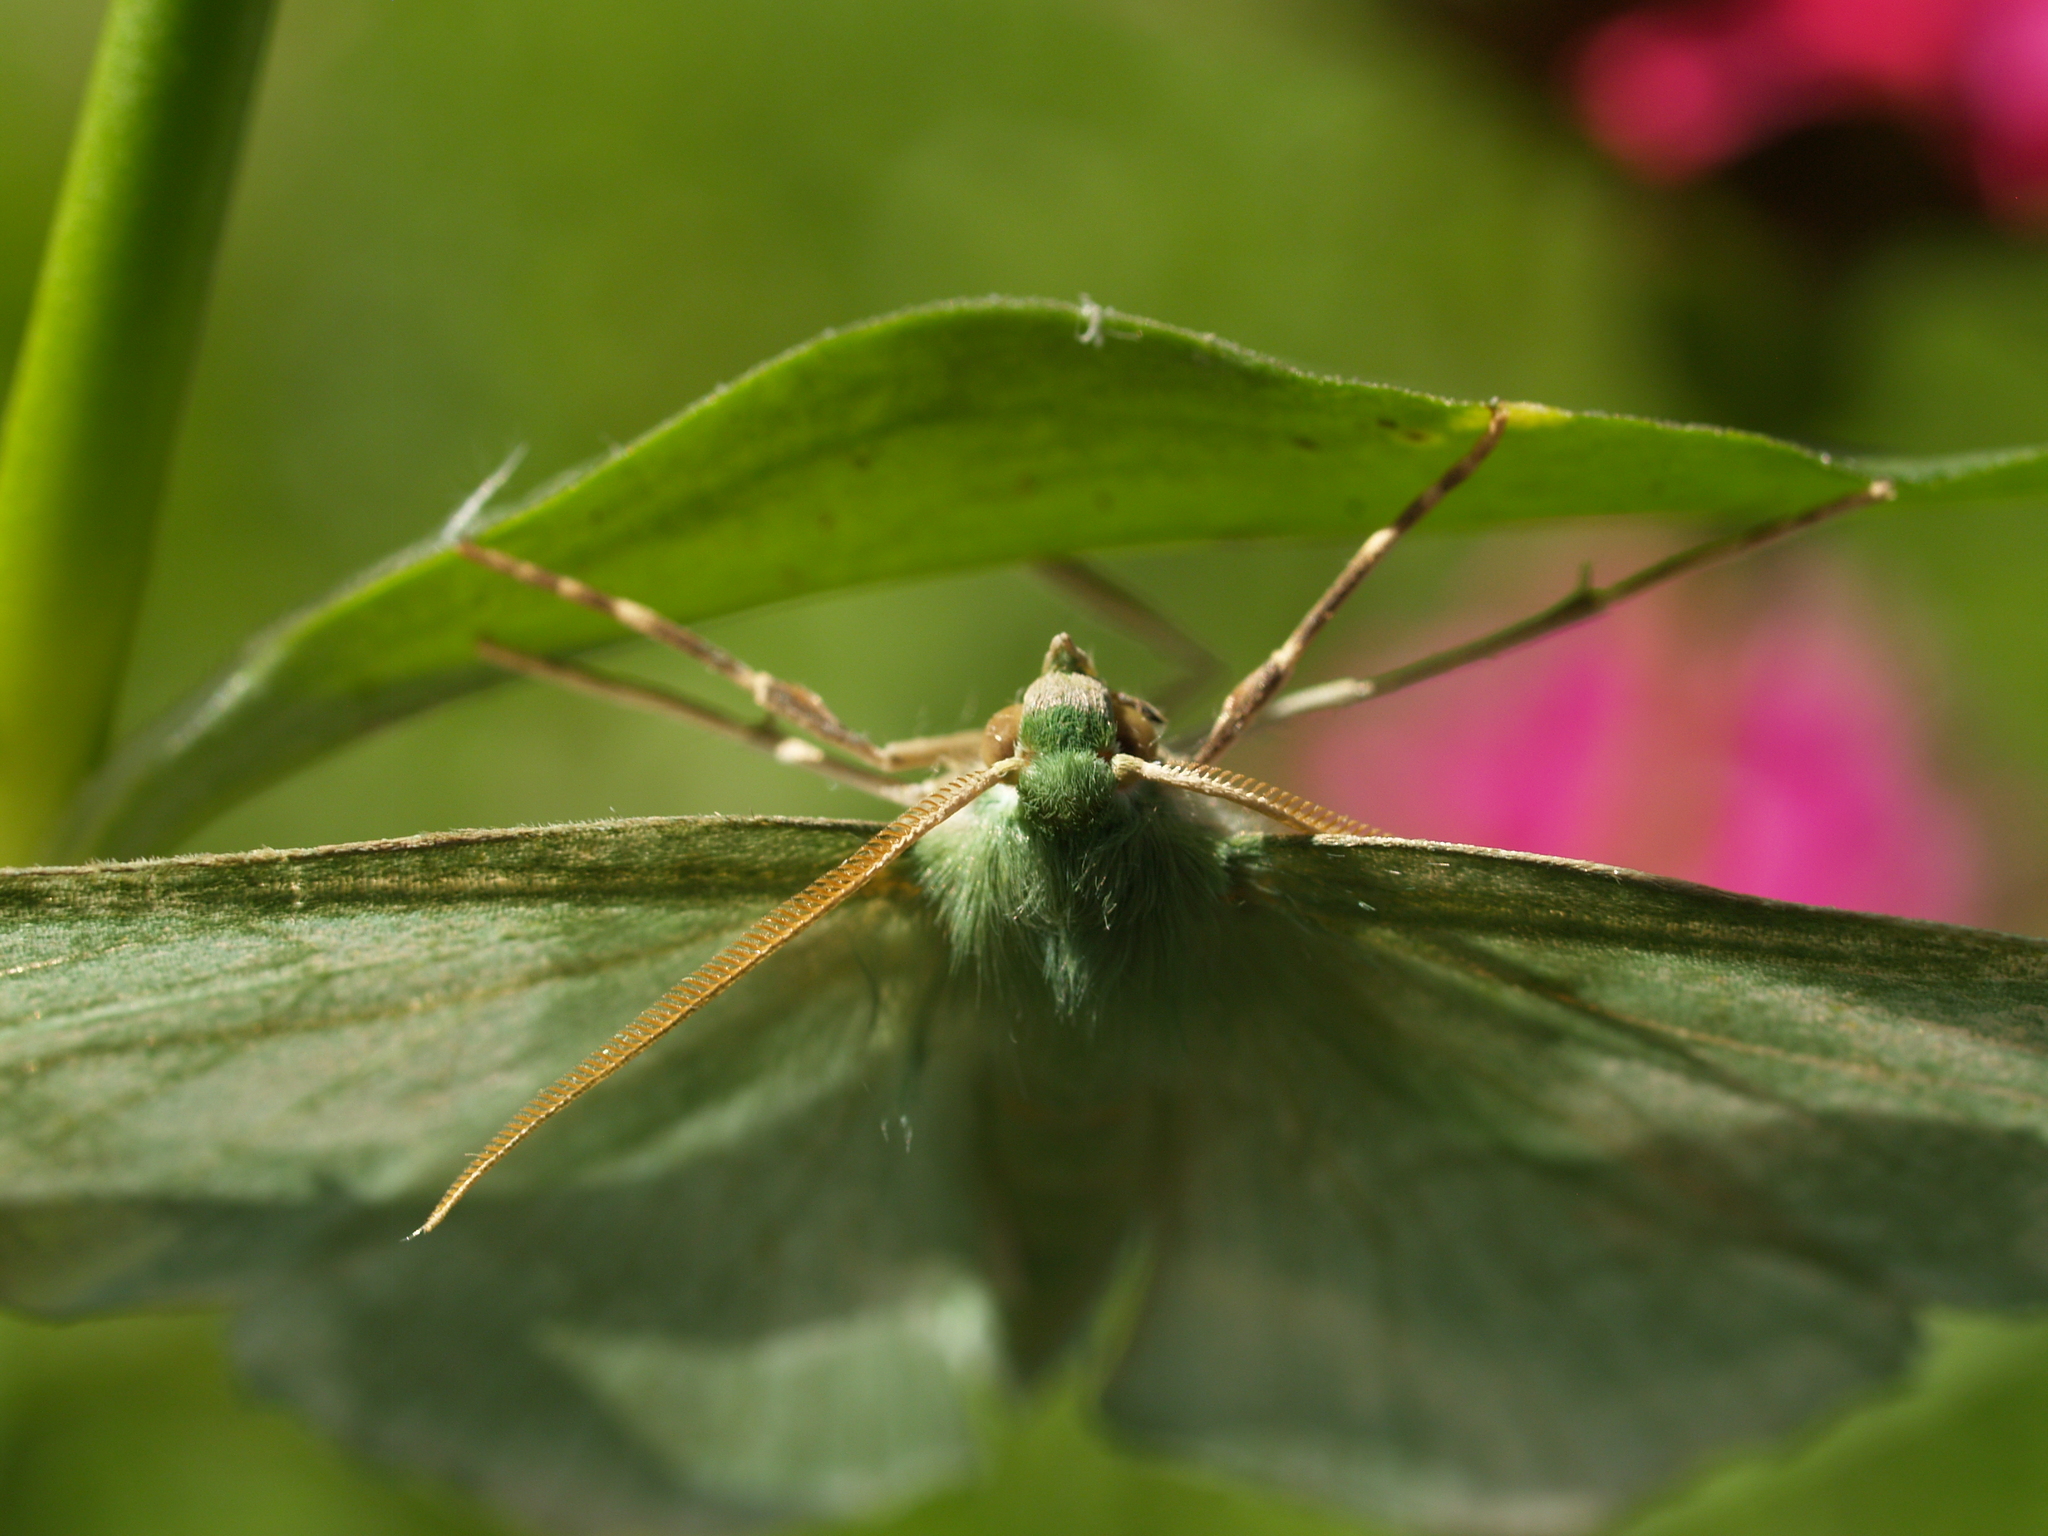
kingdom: Animalia
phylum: Arthropoda
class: Insecta
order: Lepidoptera
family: Geometridae
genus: Geometra
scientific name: Geometra papilionaria
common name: Large emerald
